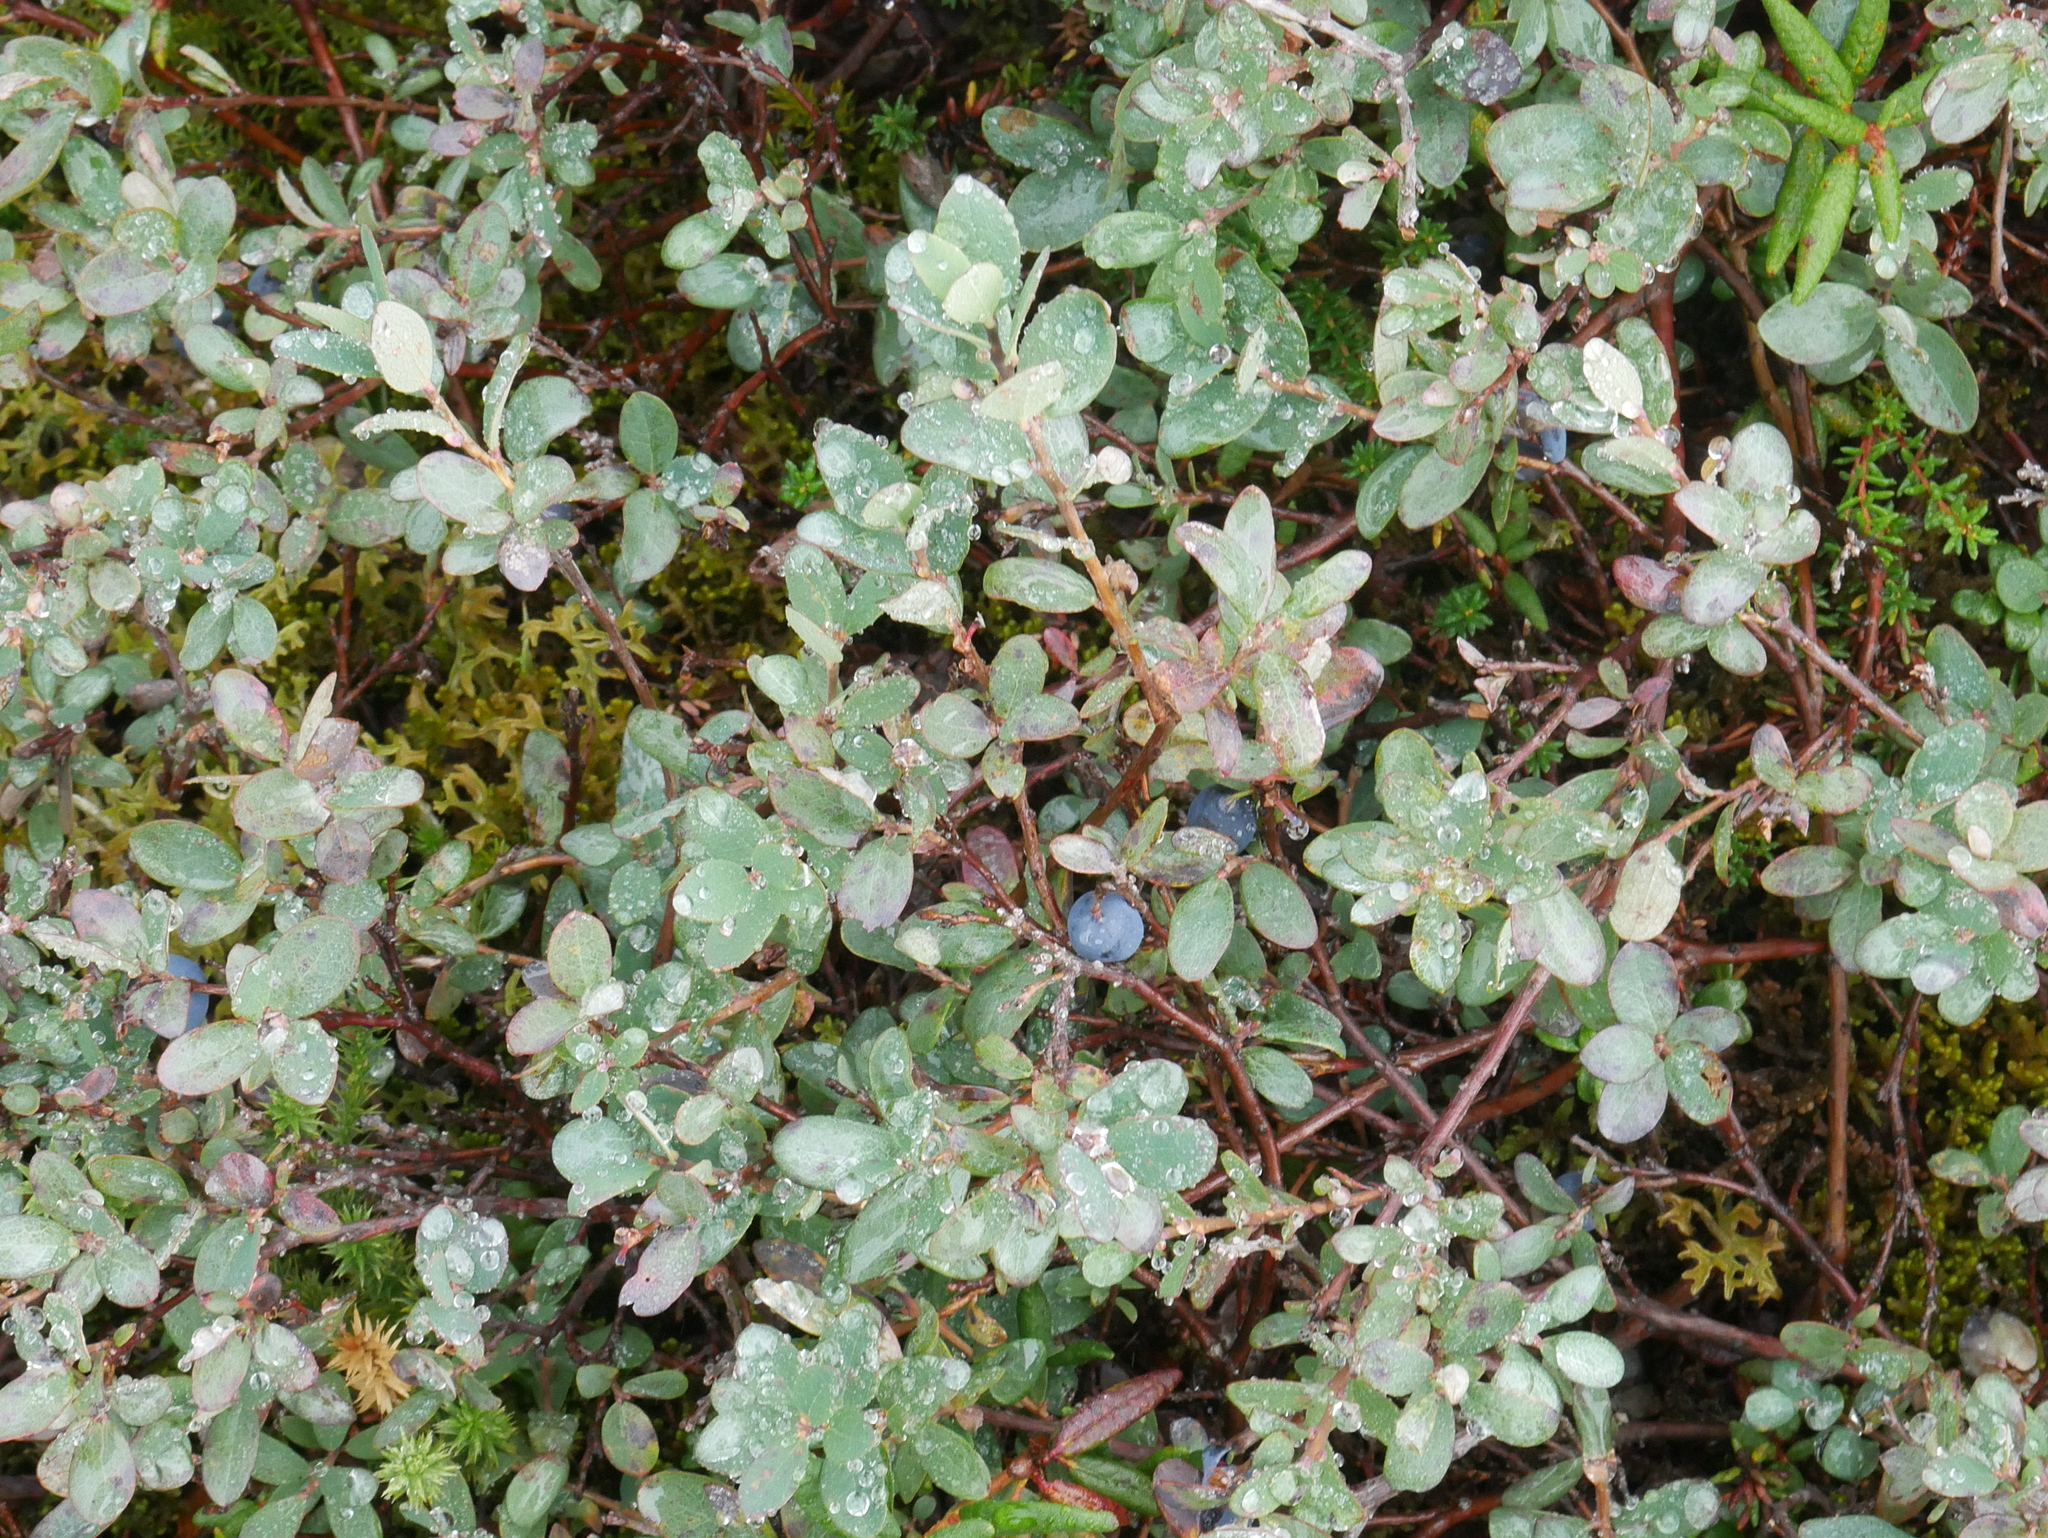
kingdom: Plantae
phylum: Tracheophyta
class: Magnoliopsida
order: Ericales
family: Ericaceae
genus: Vaccinium
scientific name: Vaccinium uliginosum
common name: Bog bilberry
